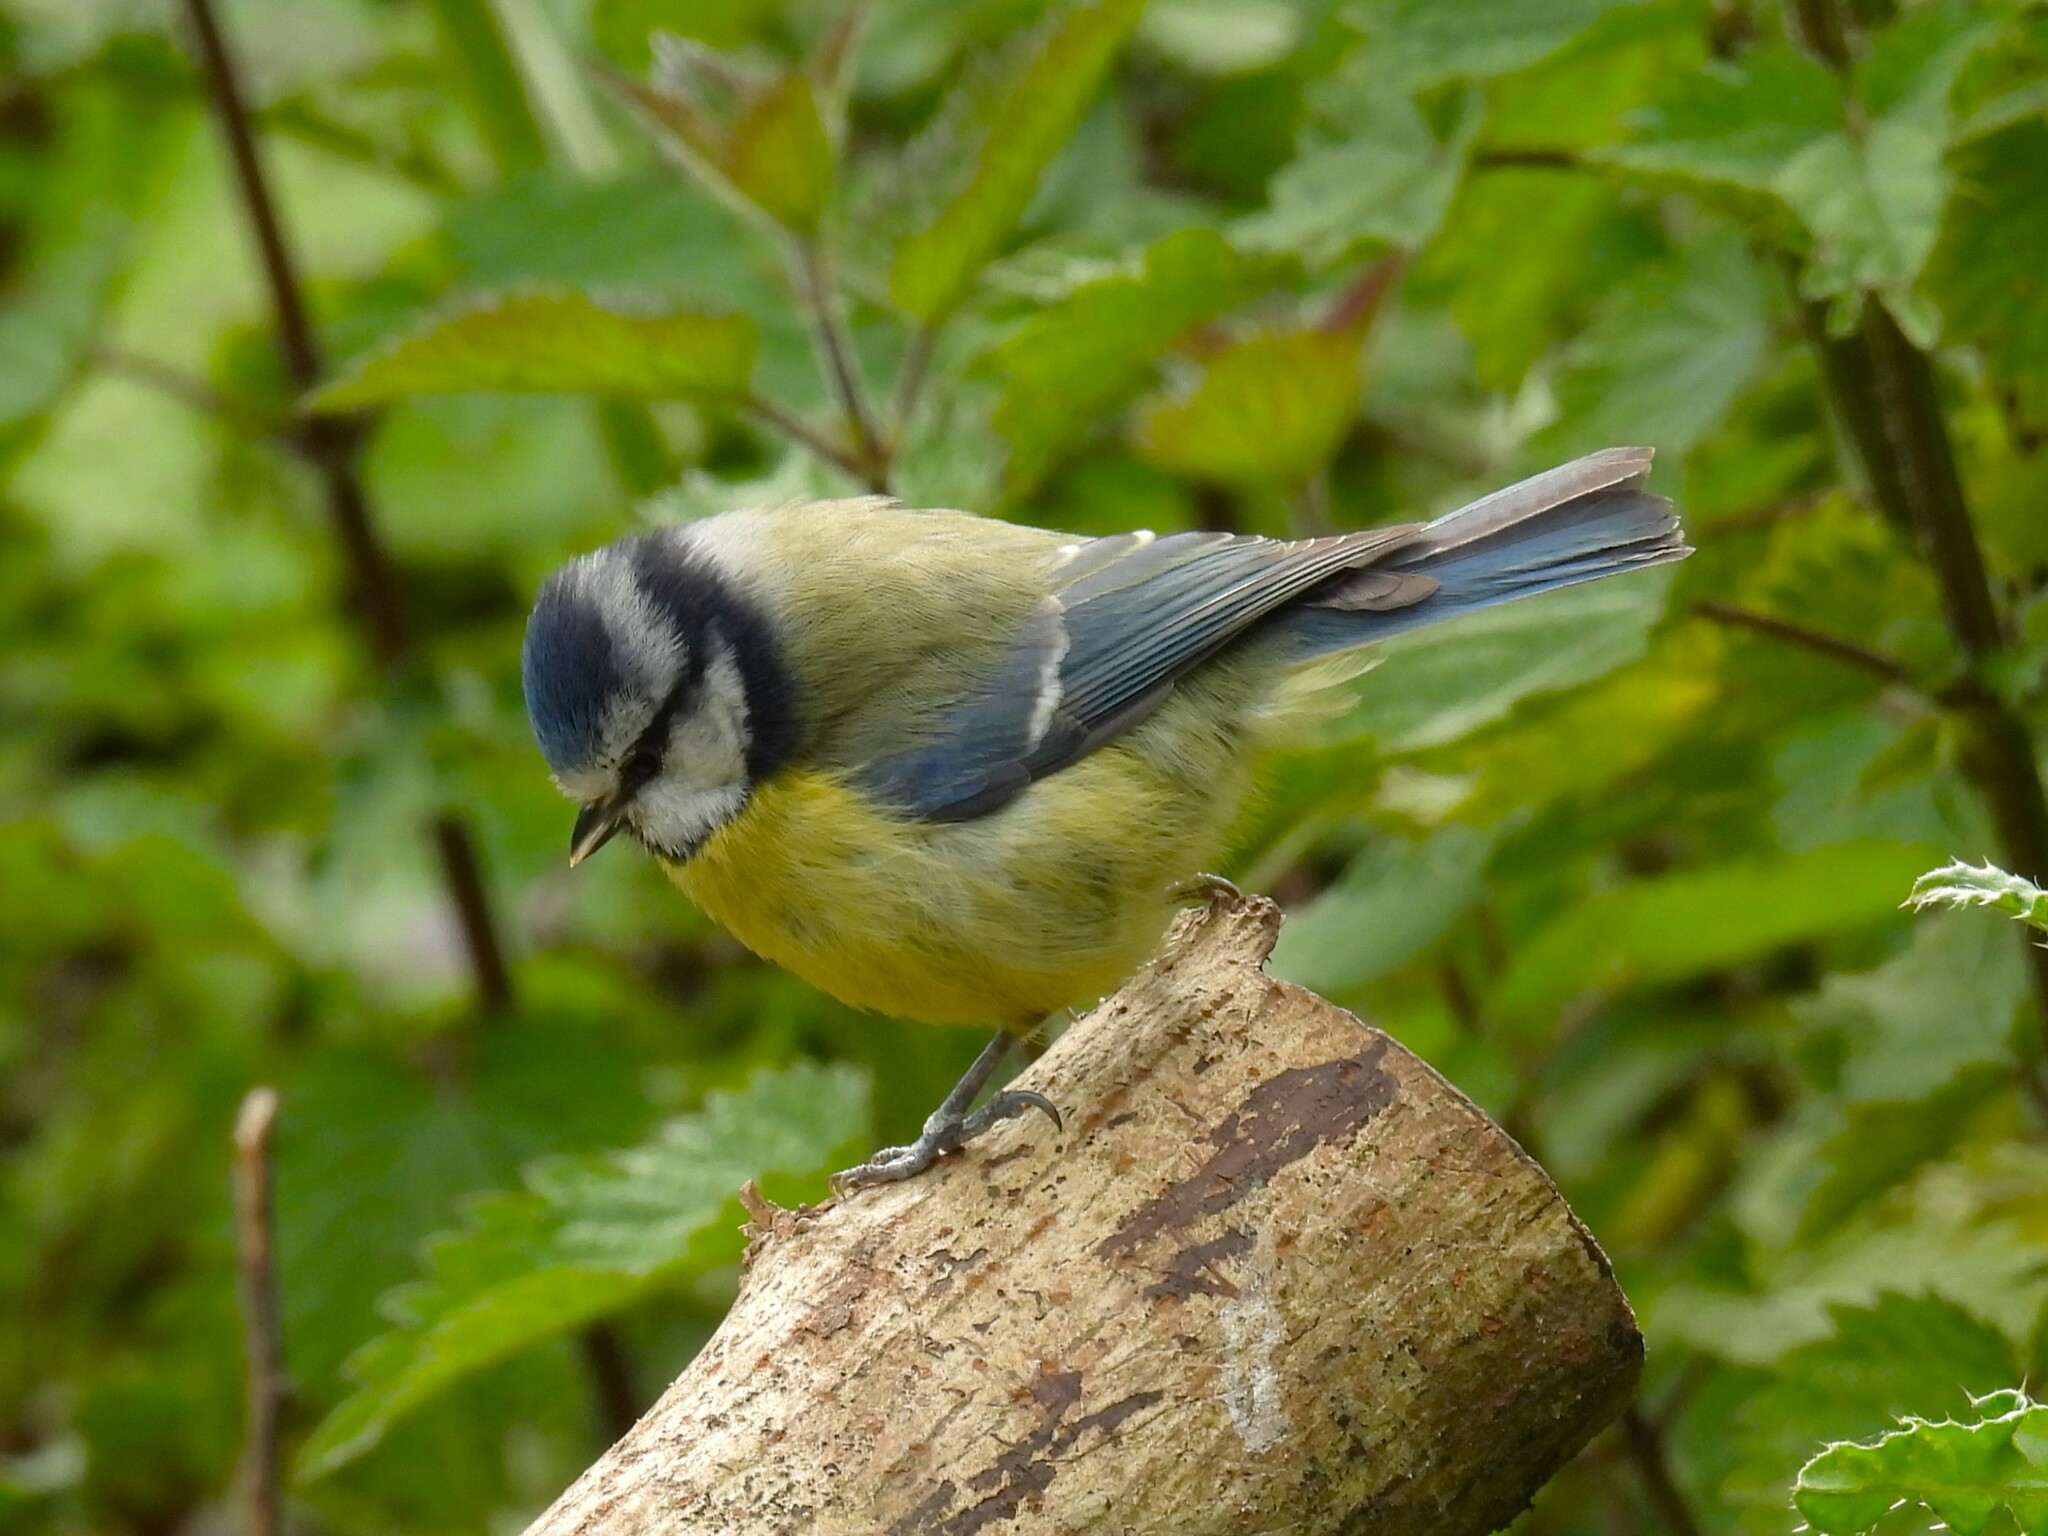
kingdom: Animalia
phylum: Chordata
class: Aves
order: Passeriformes
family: Paridae
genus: Cyanistes
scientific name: Cyanistes caeruleus
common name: Eurasian blue tit
